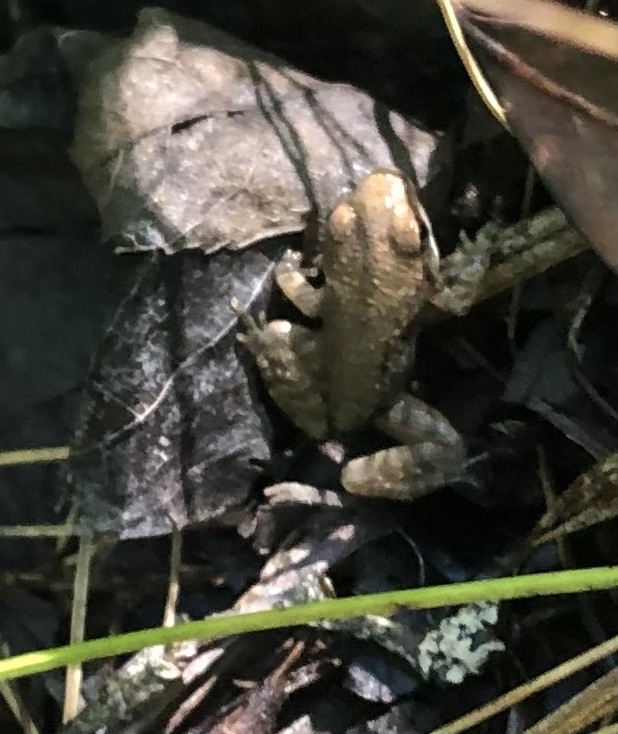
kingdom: Animalia
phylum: Chordata
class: Amphibia
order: Anura
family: Ranidae
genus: Lithobates
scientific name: Lithobates sylvaticus
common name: Wood frog
